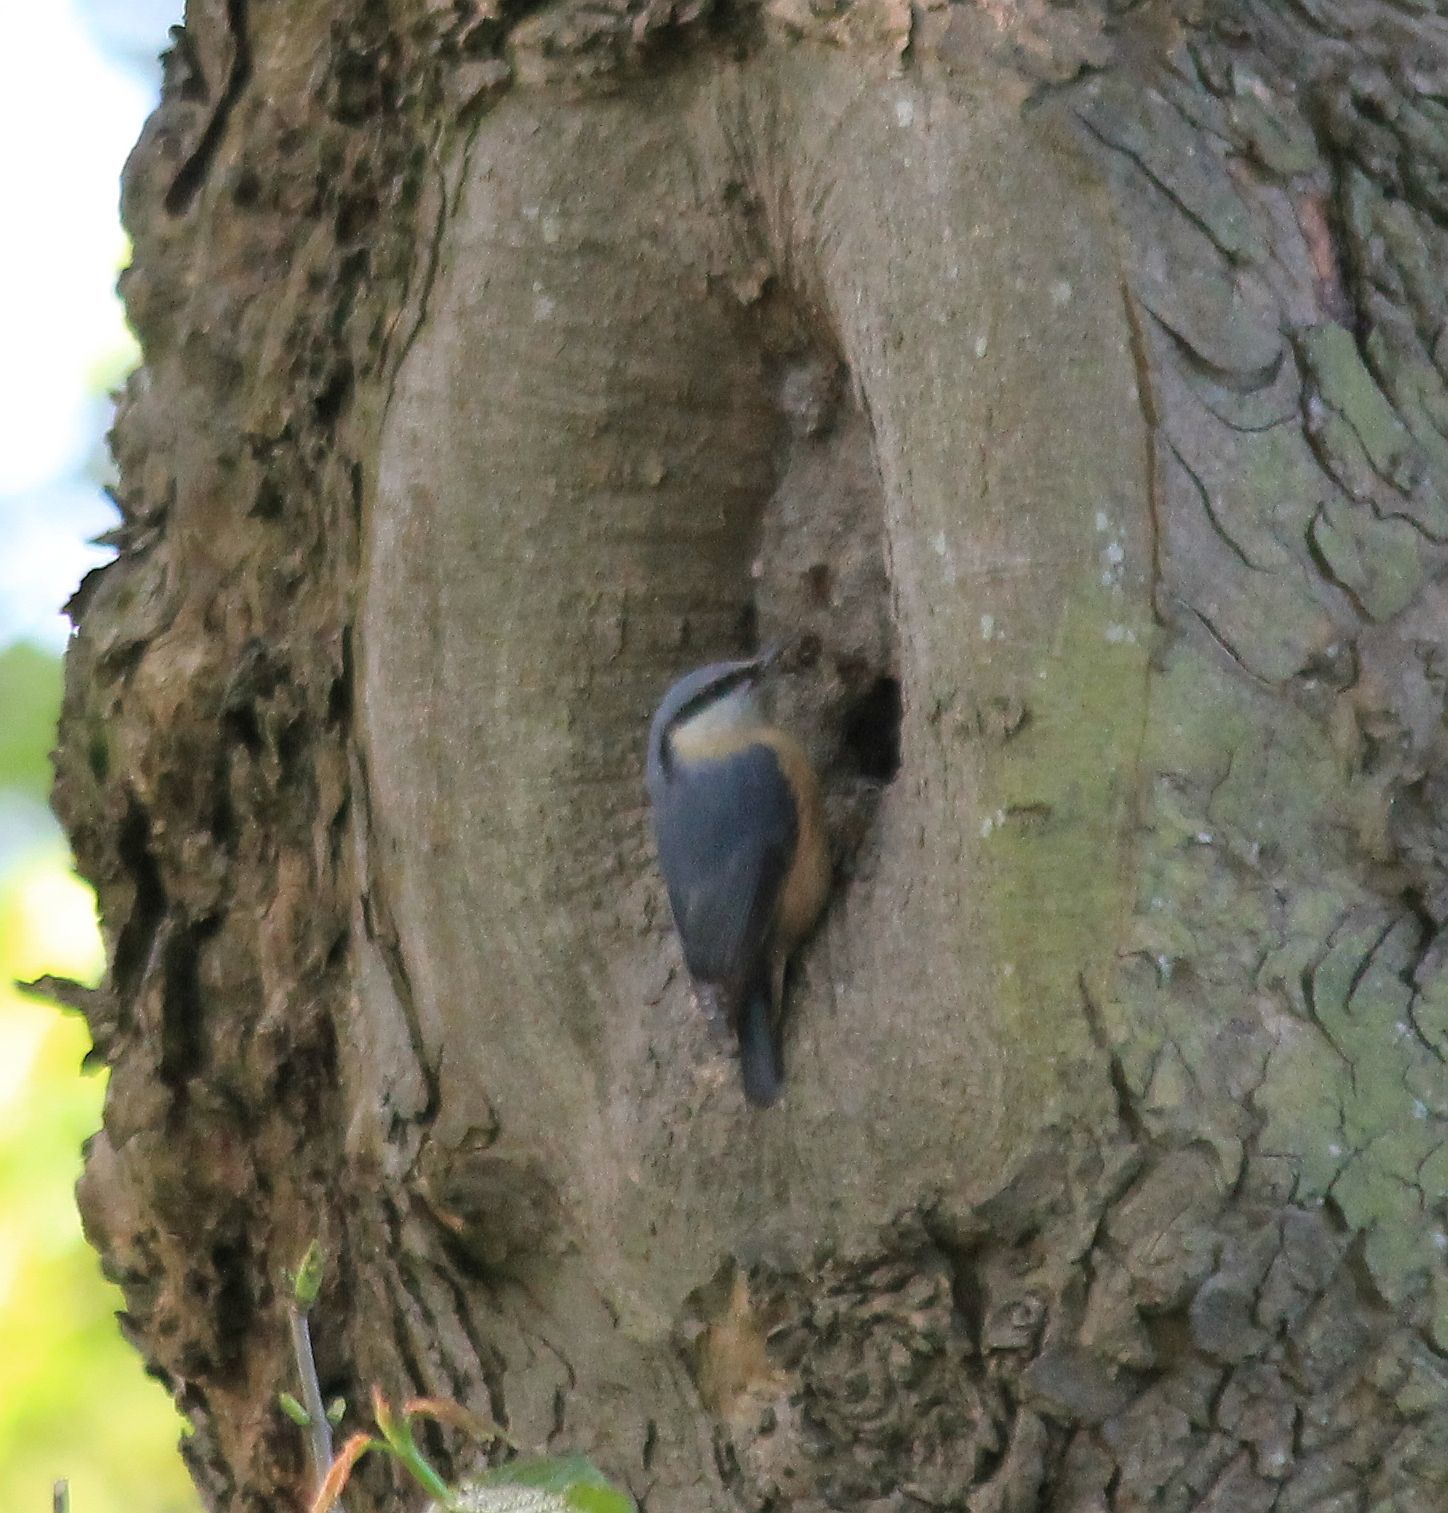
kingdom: Animalia
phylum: Chordata
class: Aves
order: Passeriformes
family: Sittidae
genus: Sitta
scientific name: Sitta europaea
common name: Eurasian nuthatch
